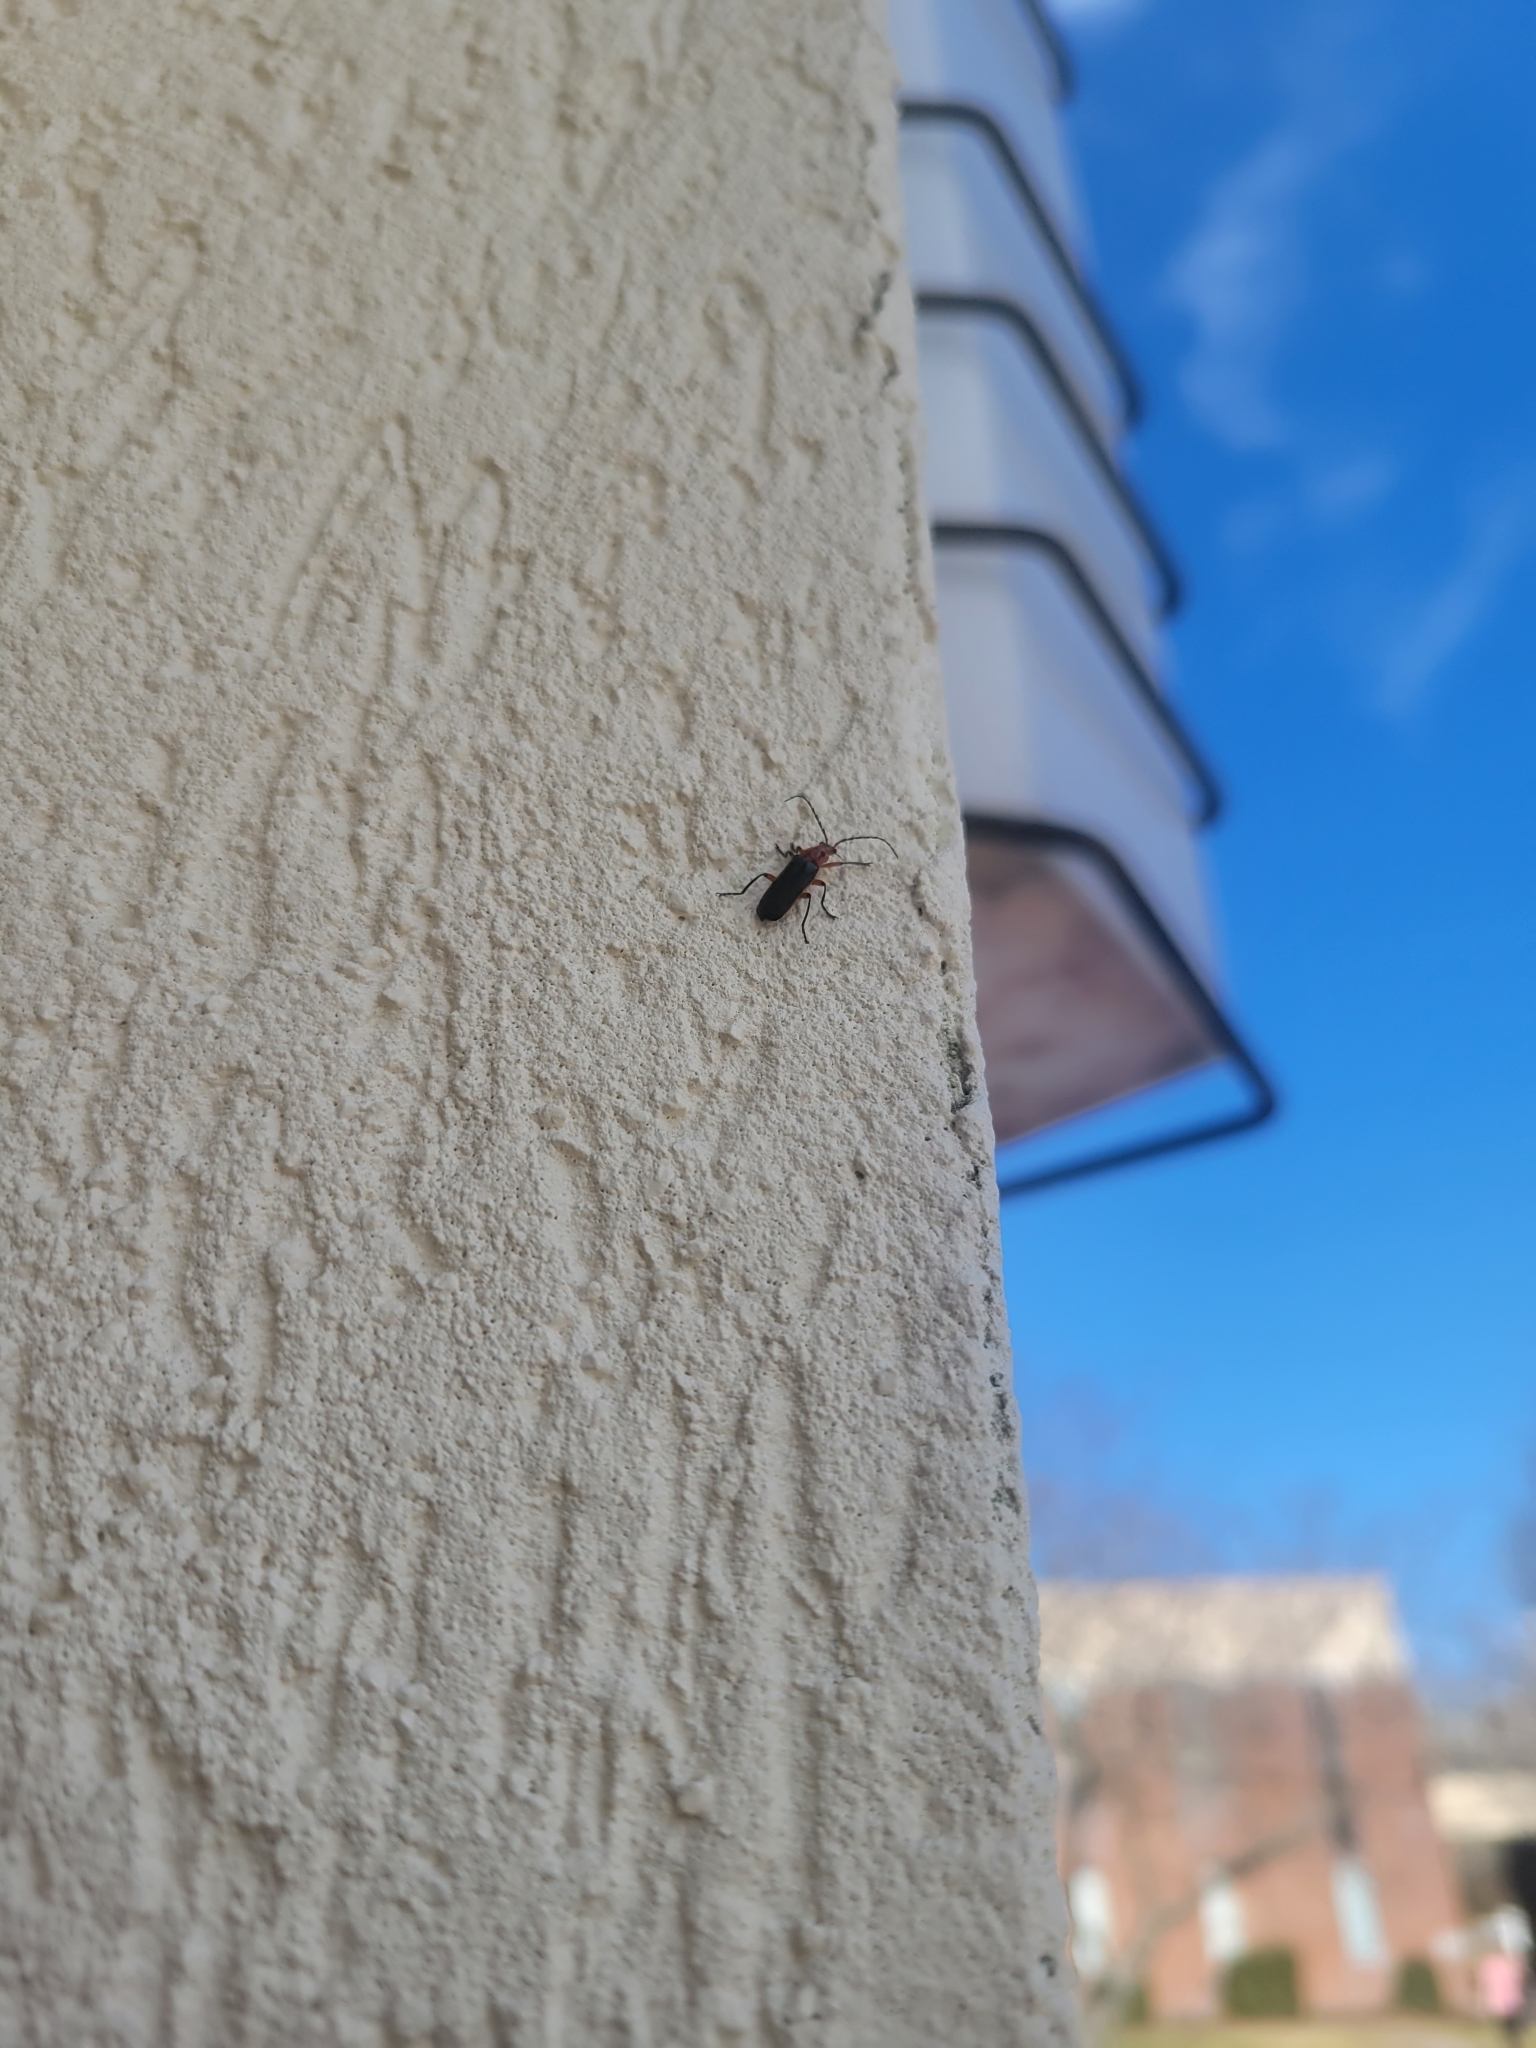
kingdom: Animalia
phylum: Arthropoda
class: Insecta
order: Coleoptera
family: Cantharidae
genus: Atalantycha
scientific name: Atalantycha bilineata
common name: Two-lined leatherwing
